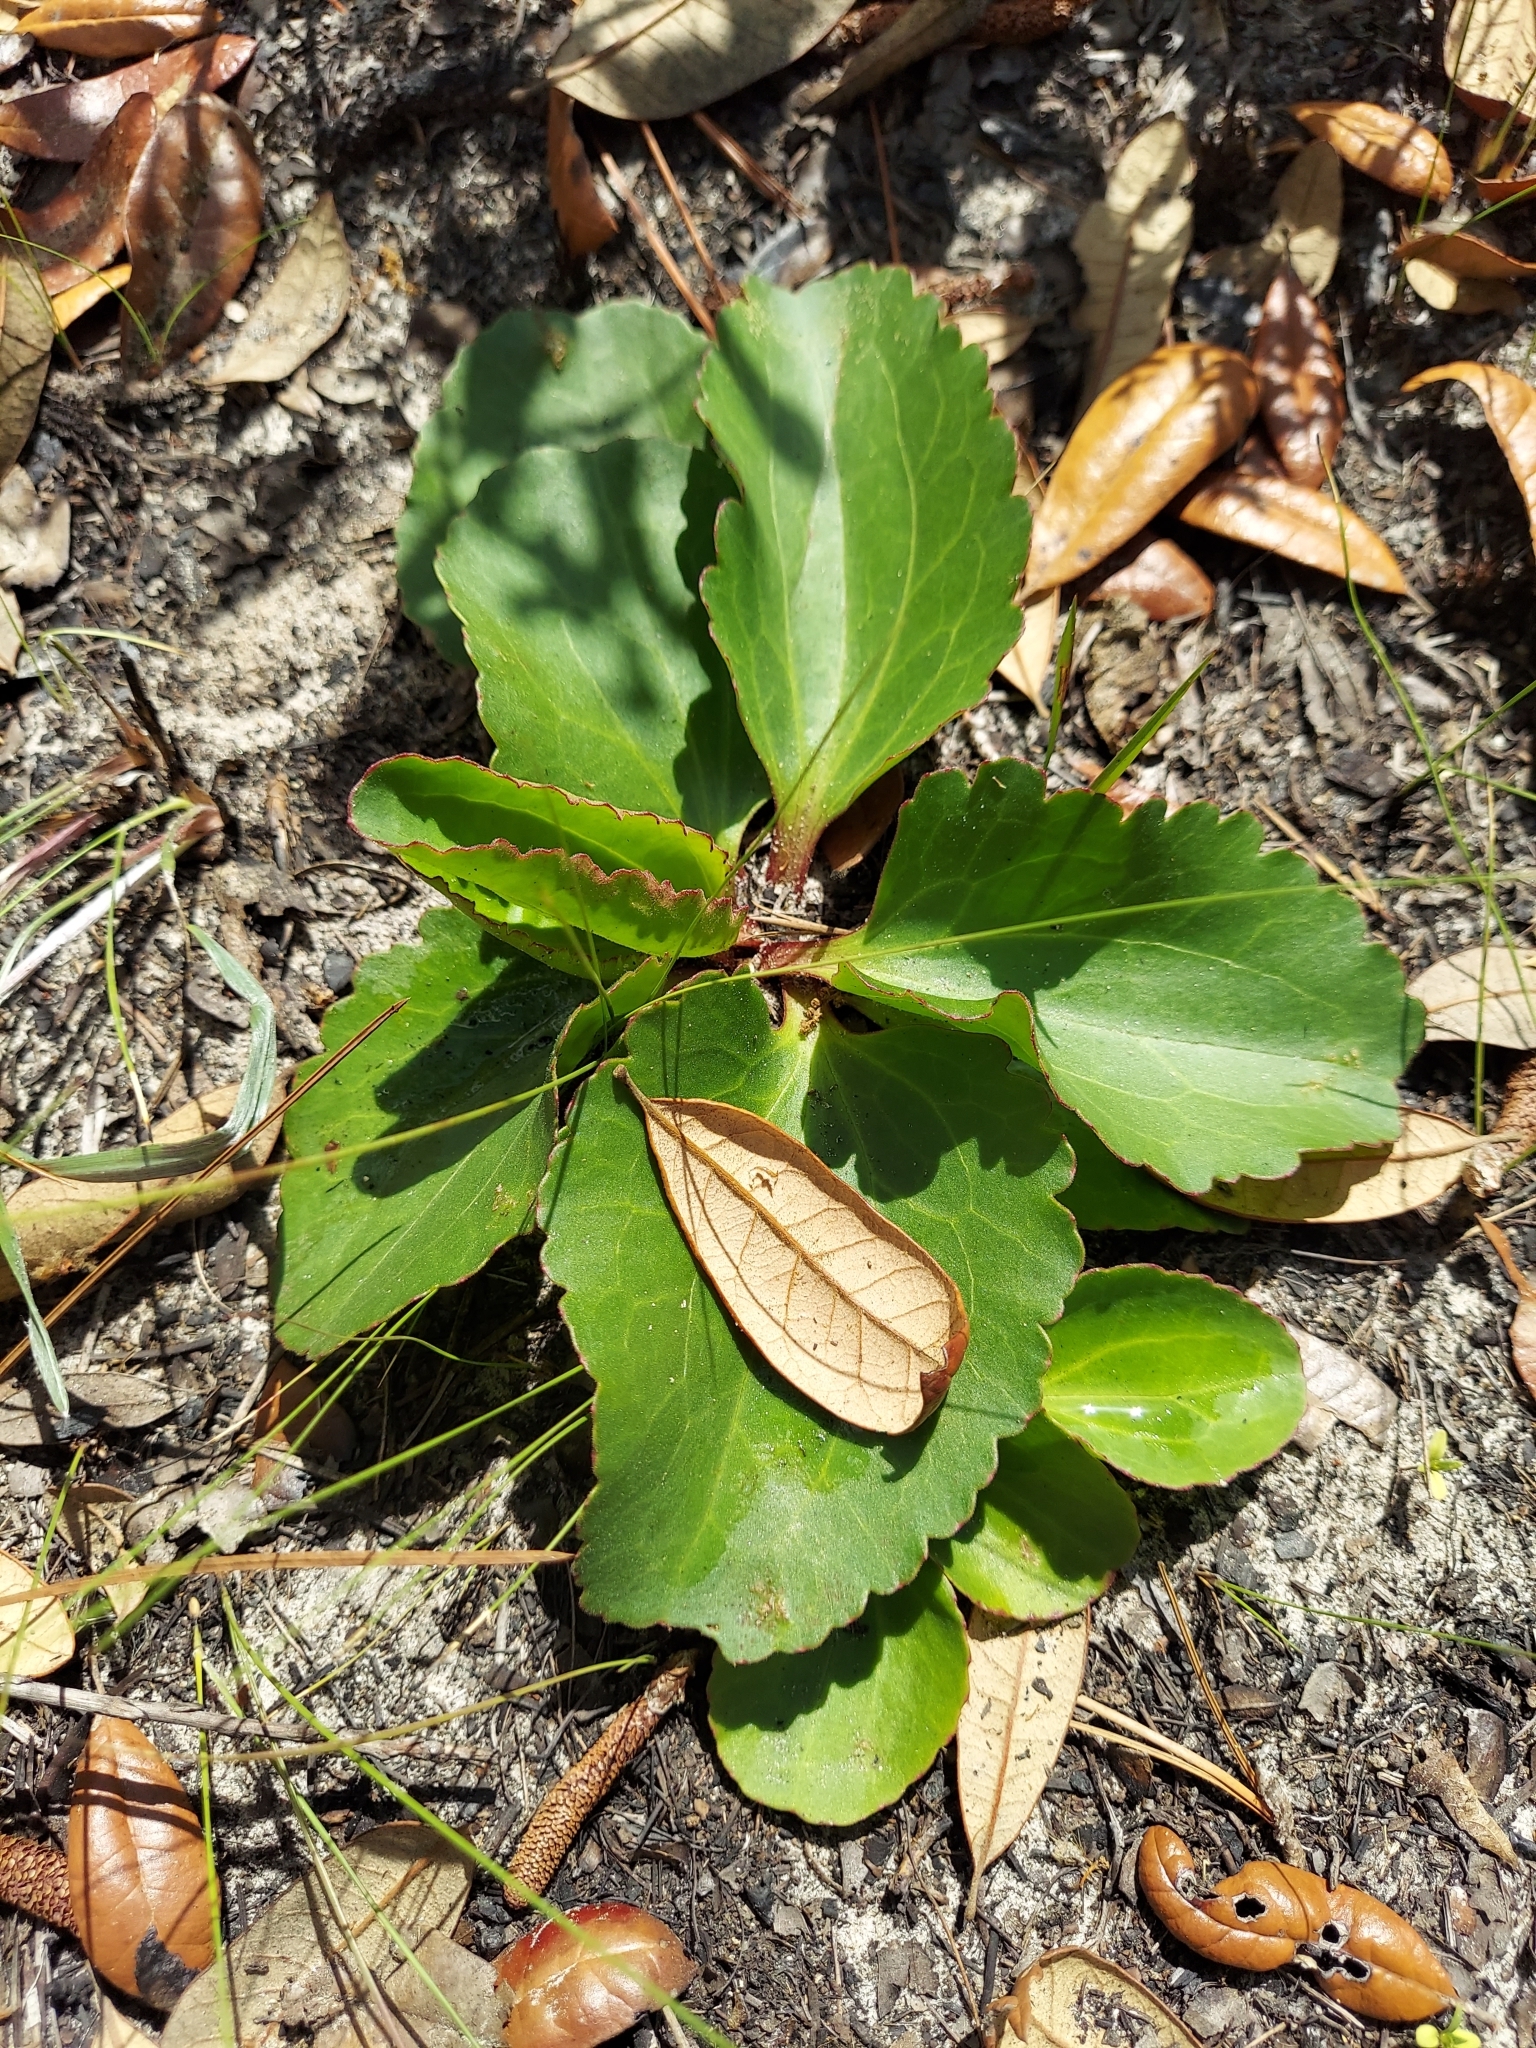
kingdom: Plantae
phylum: Tracheophyta
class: Magnoliopsida
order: Asterales
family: Asteraceae
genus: Arnoglossum
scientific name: Arnoglossum floridanum
